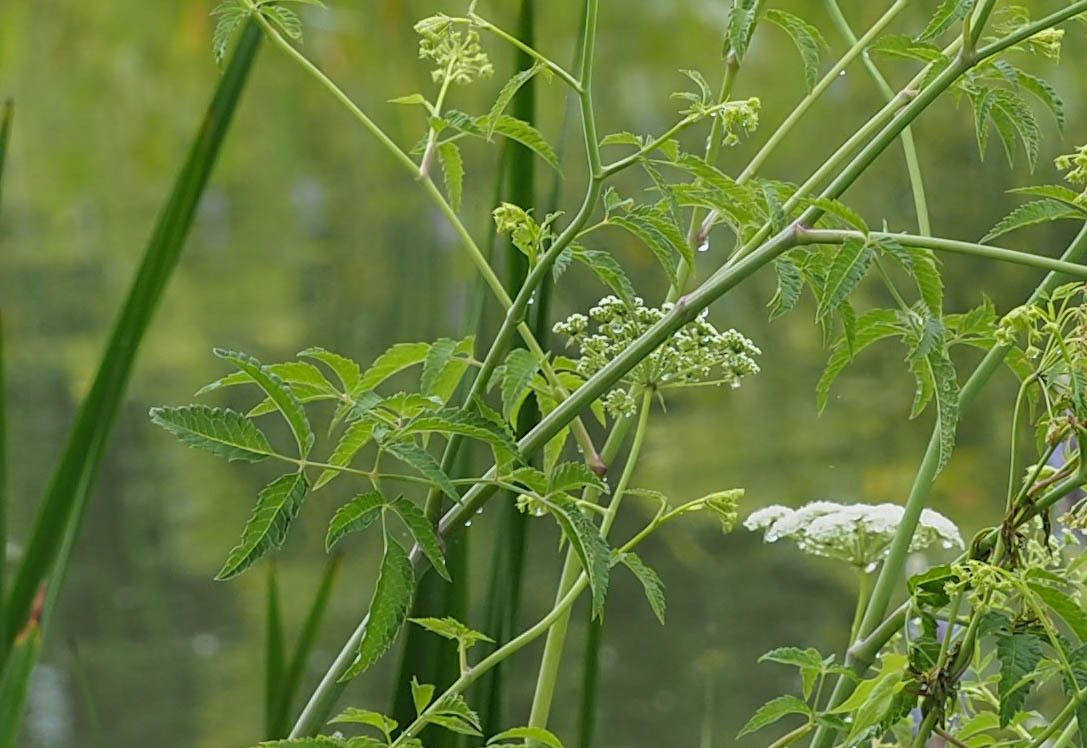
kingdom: Plantae
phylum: Tracheophyta
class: Magnoliopsida
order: Apiales
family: Apiaceae
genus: Cicuta
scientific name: Cicuta maculata
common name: Spotted cowbane
